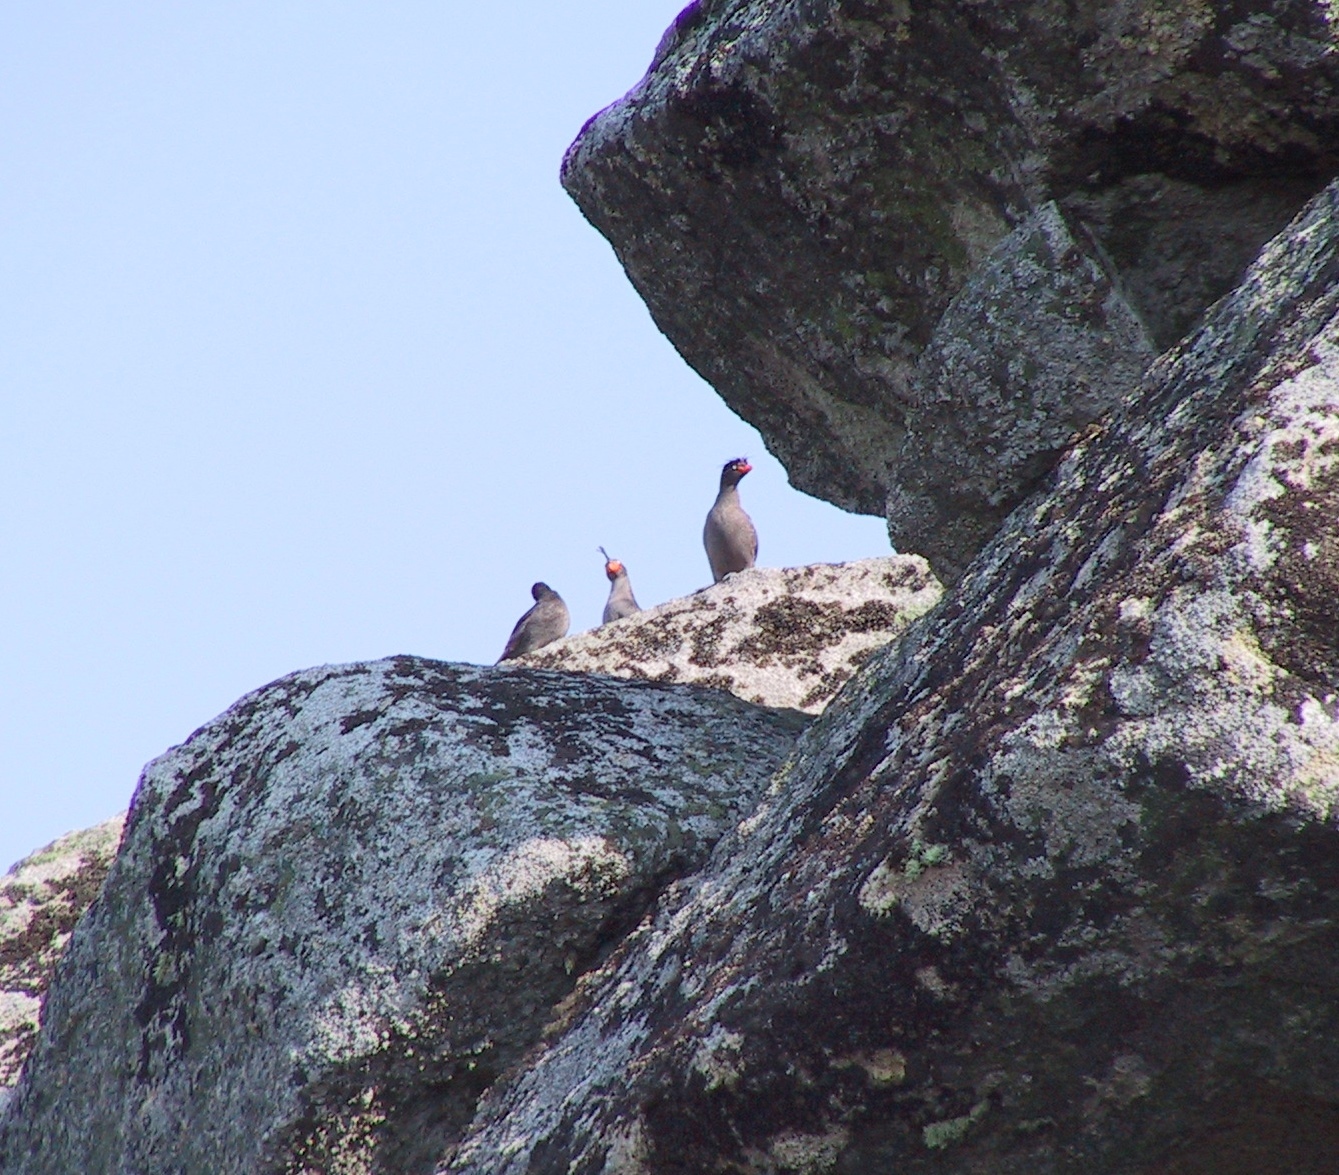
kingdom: Animalia
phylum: Chordata
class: Aves
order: Charadriiformes
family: Alcidae
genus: Aethia
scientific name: Aethia cristatella
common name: Crested auklet
